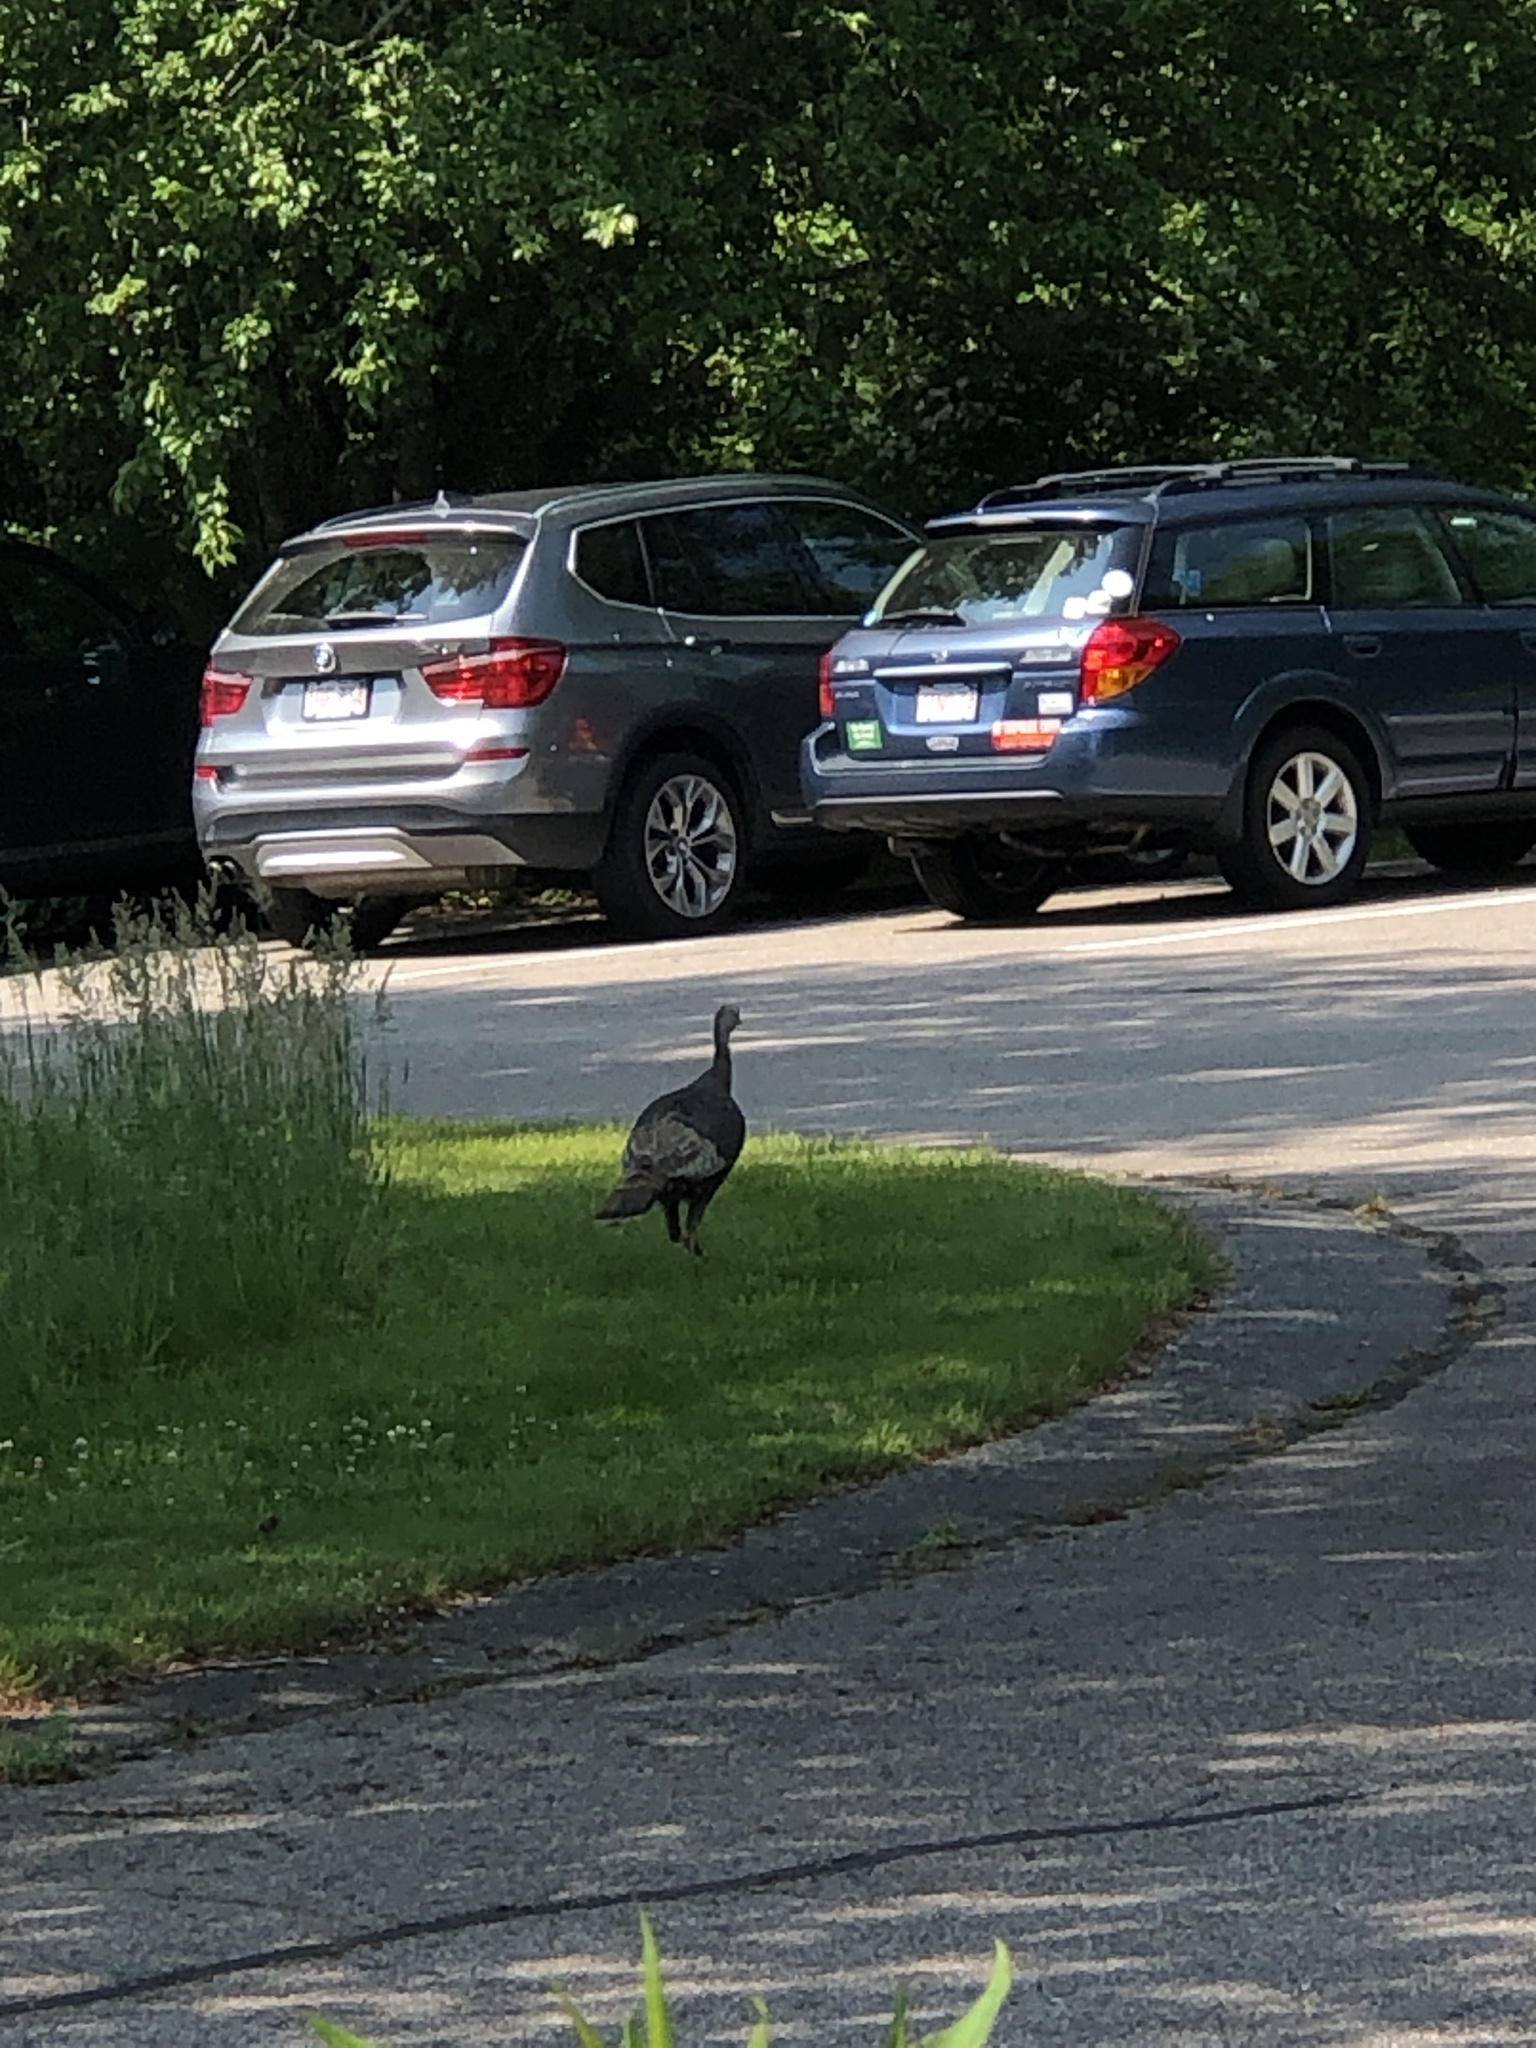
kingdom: Animalia
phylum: Chordata
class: Aves
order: Galliformes
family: Phasianidae
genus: Meleagris
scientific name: Meleagris gallopavo
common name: Wild turkey
